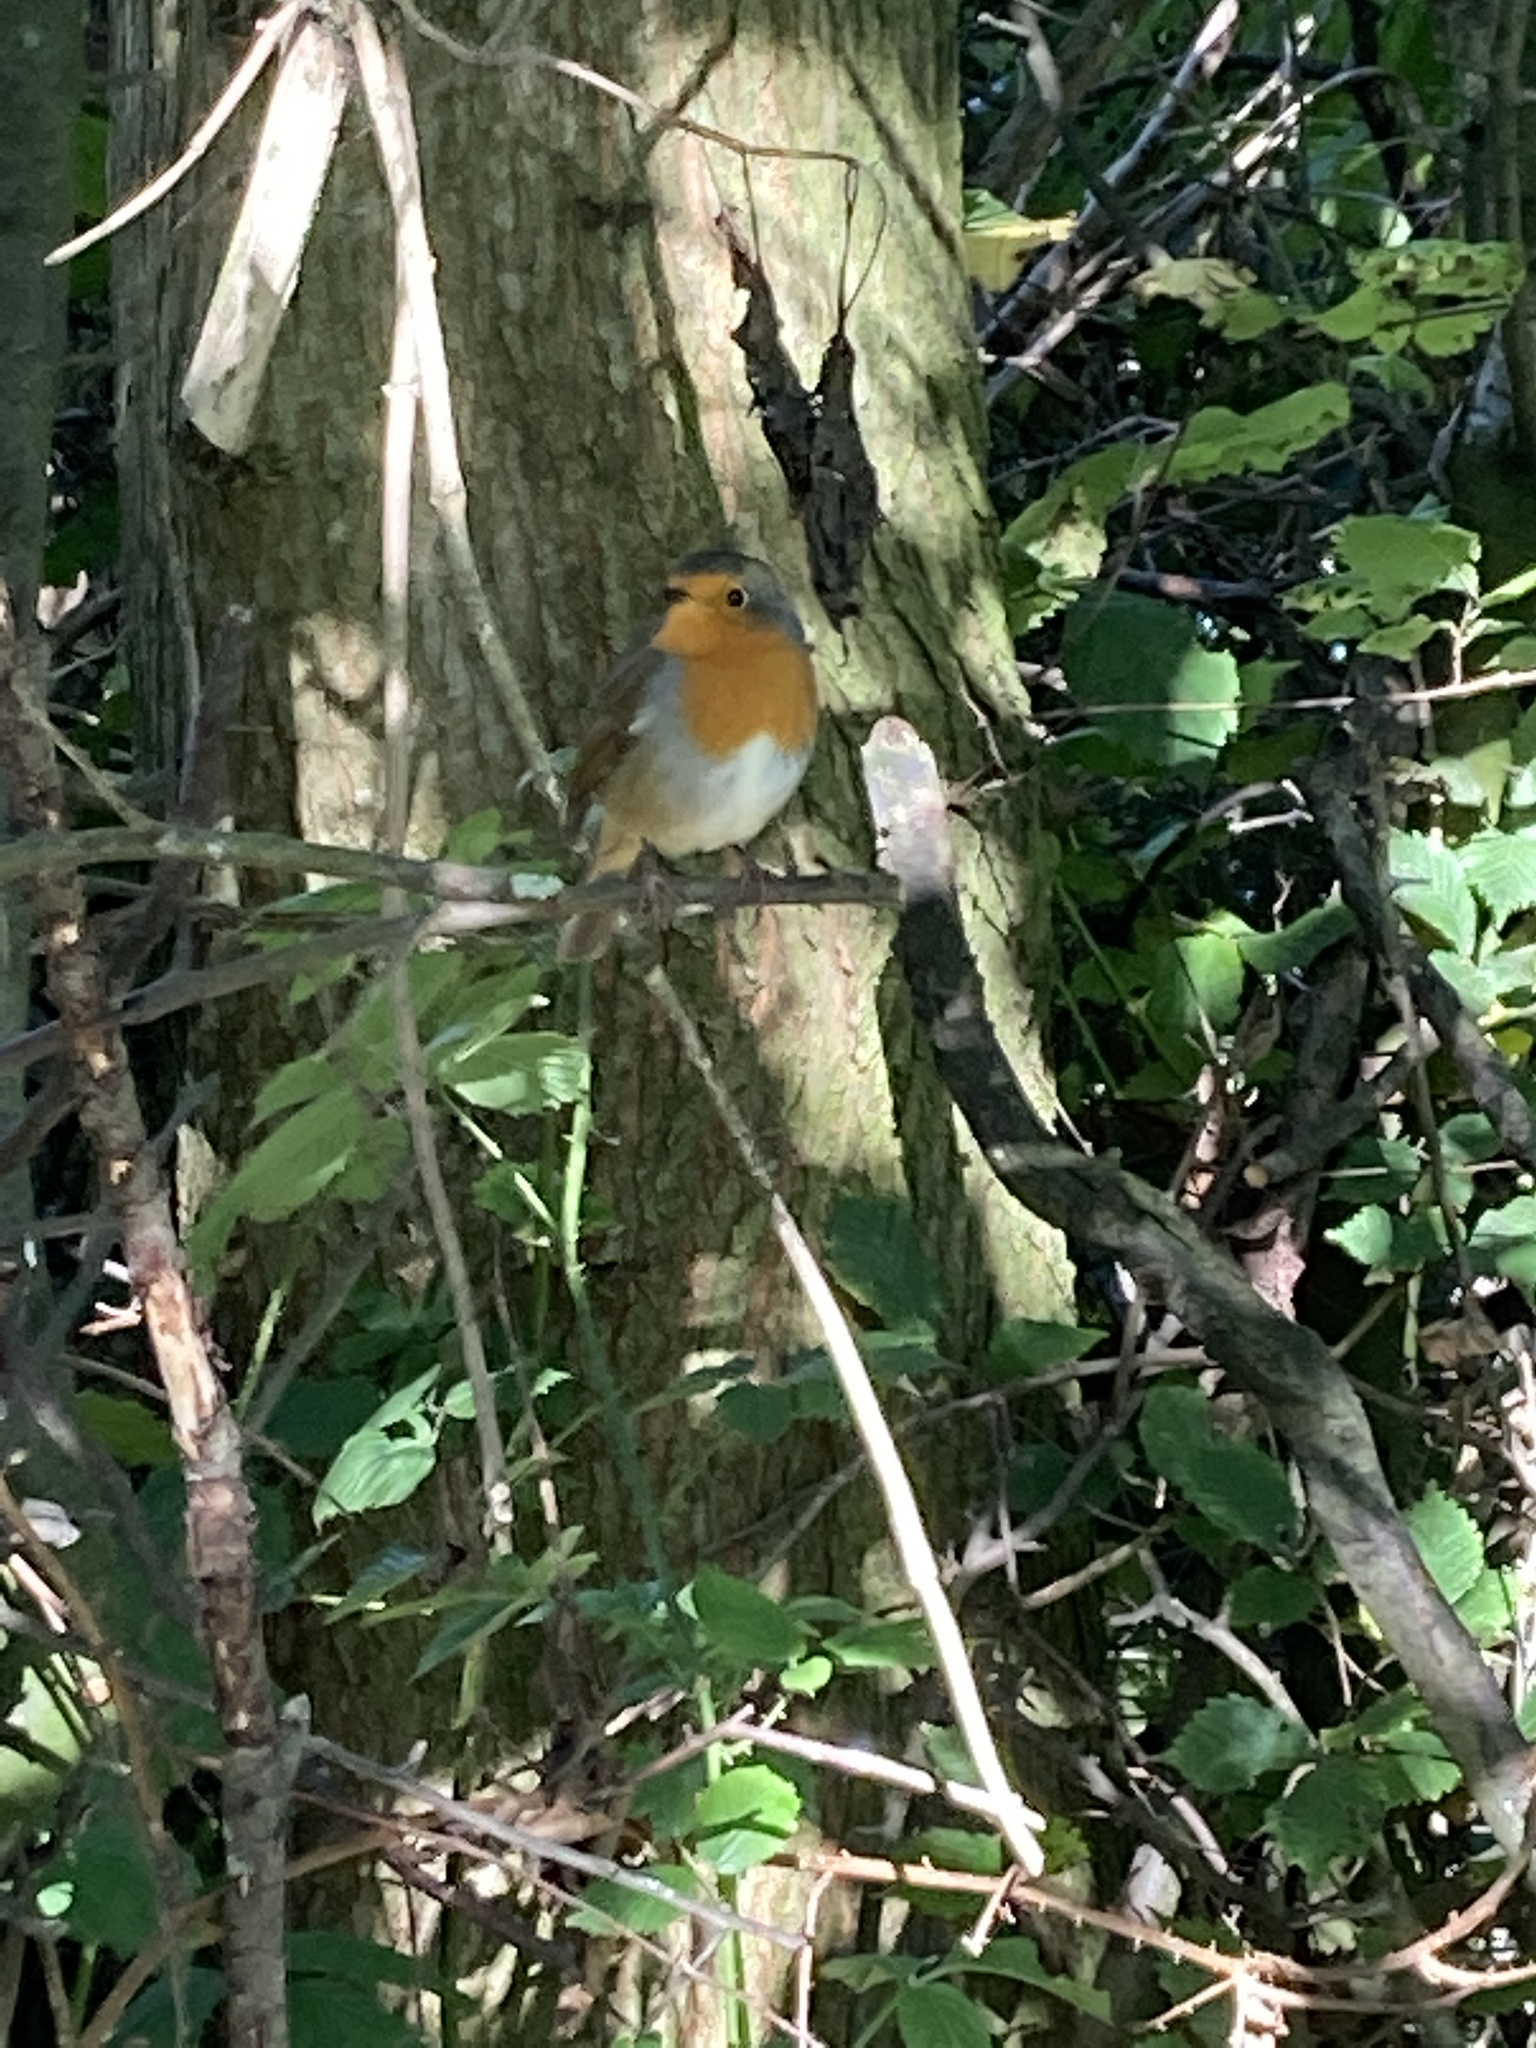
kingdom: Animalia
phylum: Chordata
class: Aves
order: Passeriformes
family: Muscicapidae
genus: Erithacus
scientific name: Erithacus rubecula
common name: European robin
